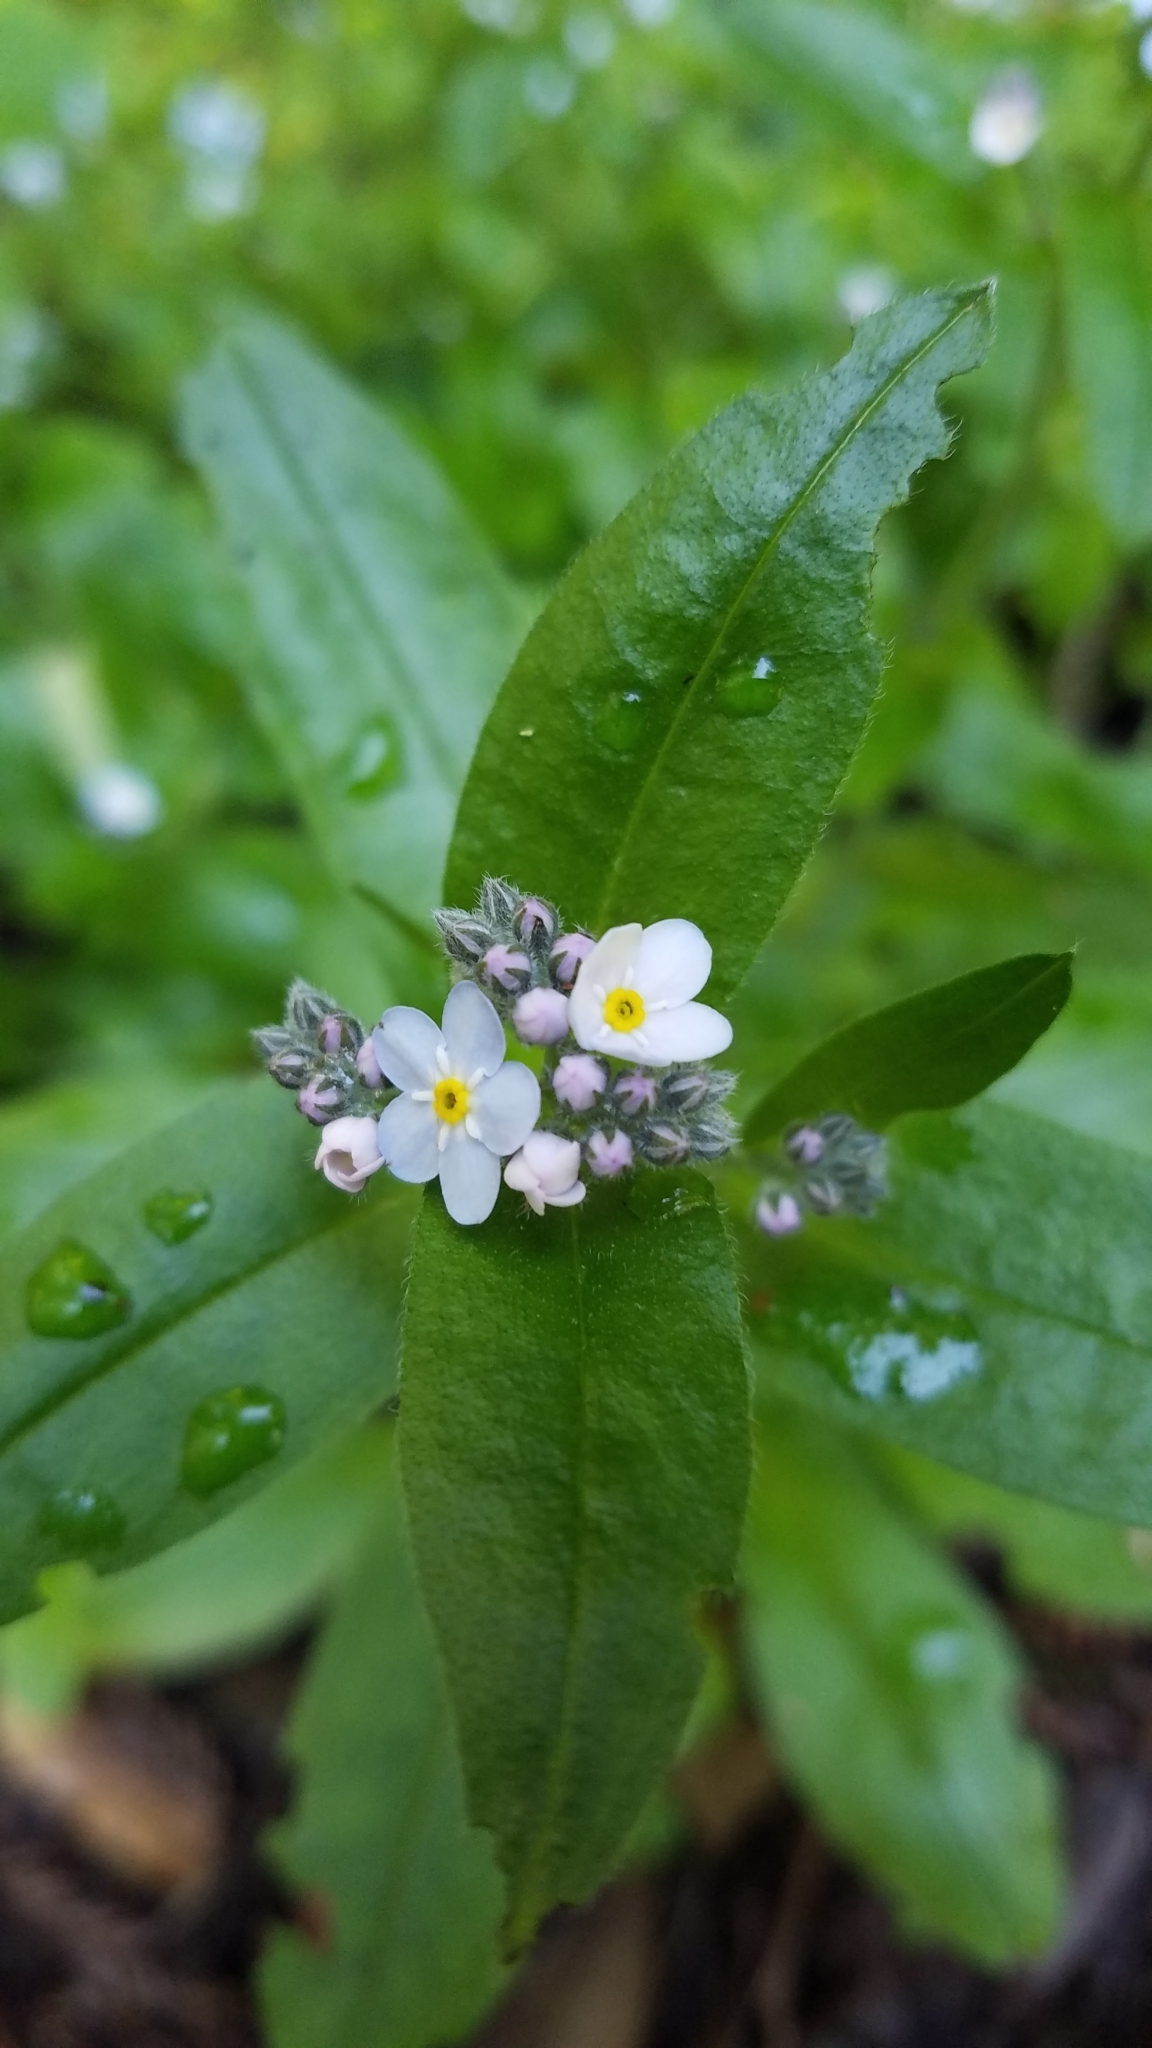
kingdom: Plantae
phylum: Tracheophyta
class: Magnoliopsida
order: Boraginales
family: Boraginaceae
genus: Myosotis
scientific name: Myosotis latifolia
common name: Broadleaf forget-me-not
